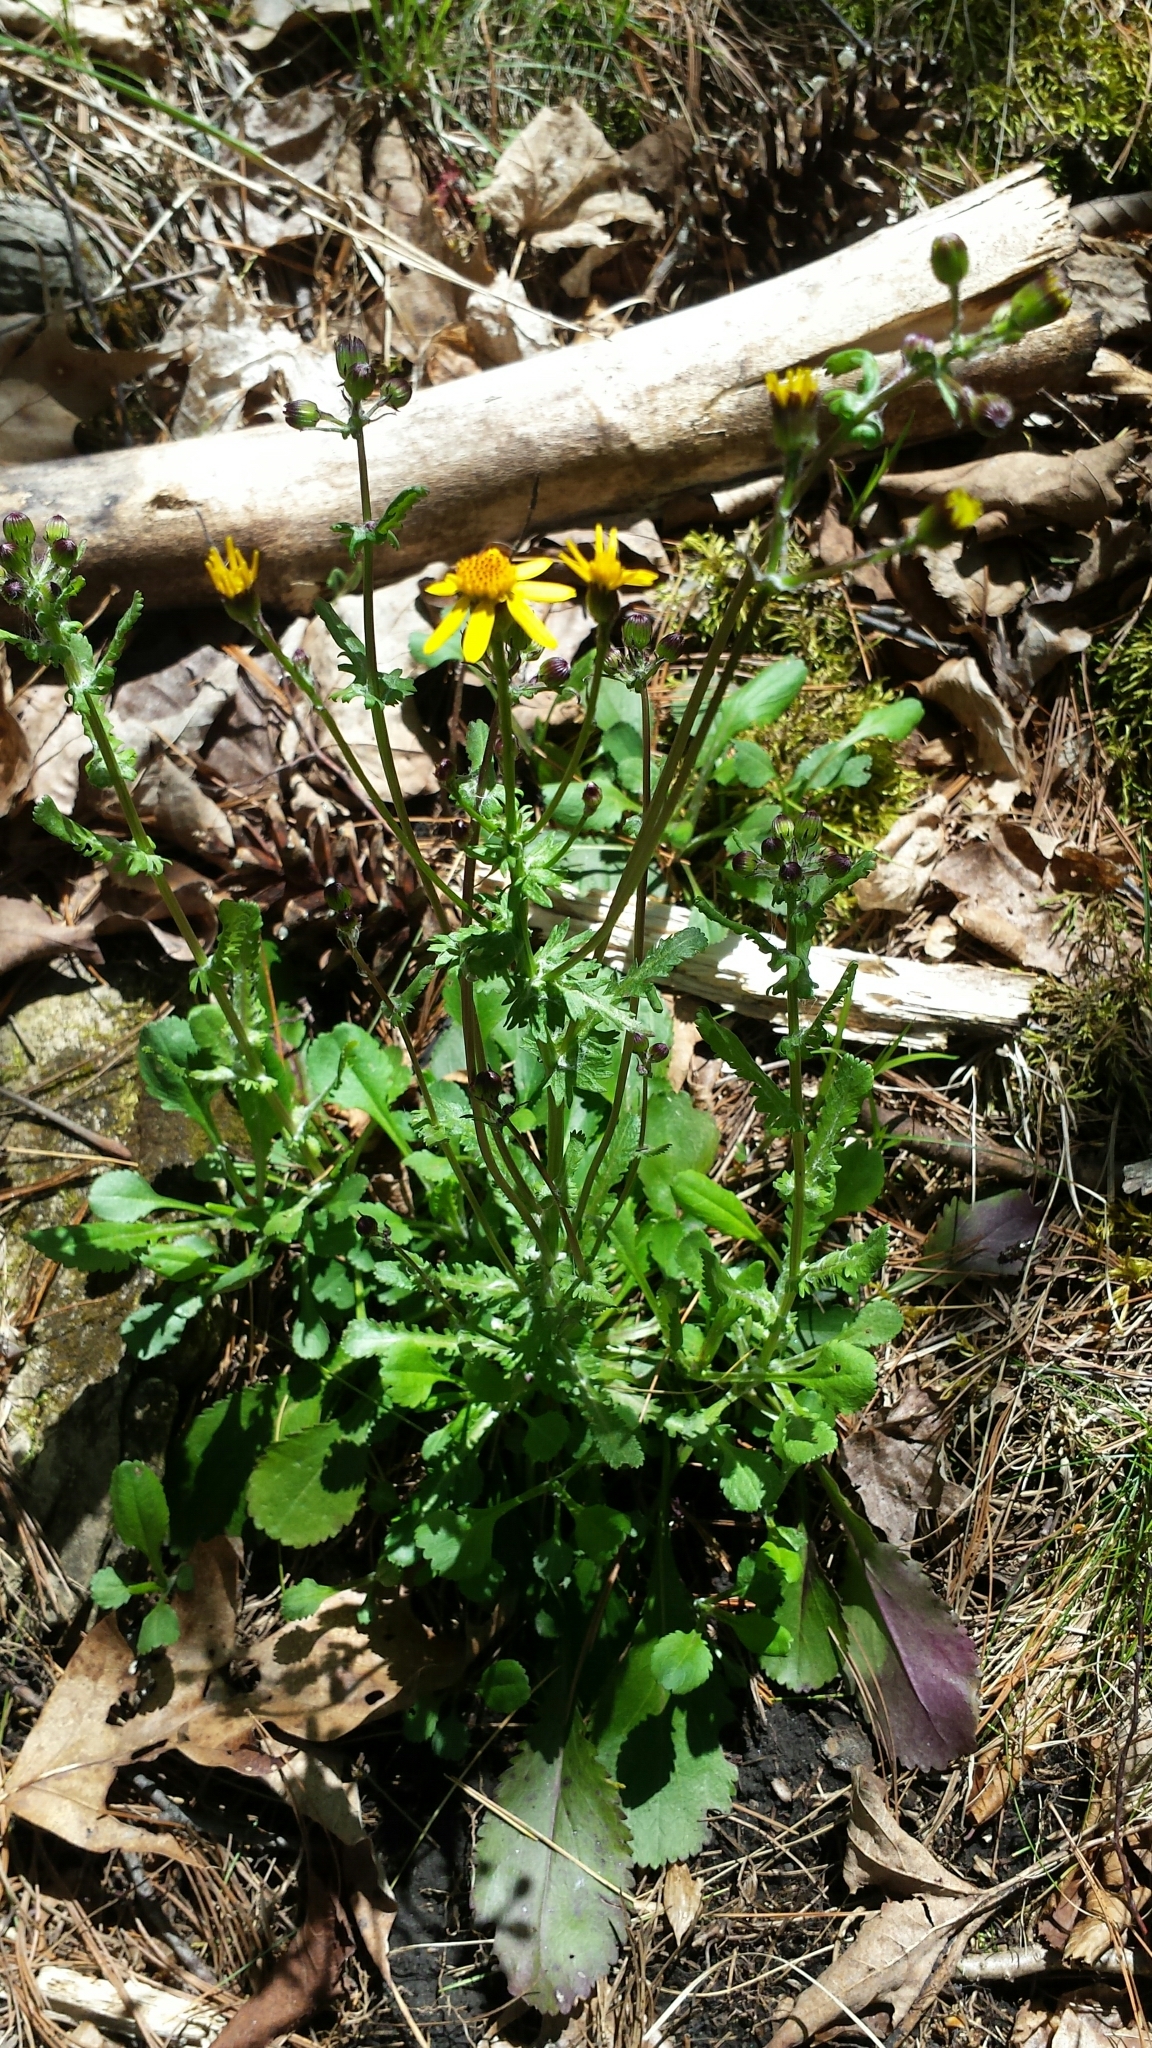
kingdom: Plantae
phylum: Tracheophyta
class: Magnoliopsida
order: Asterales
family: Asteraceae
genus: Packera
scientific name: Packera aurea
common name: Golden groundsel
